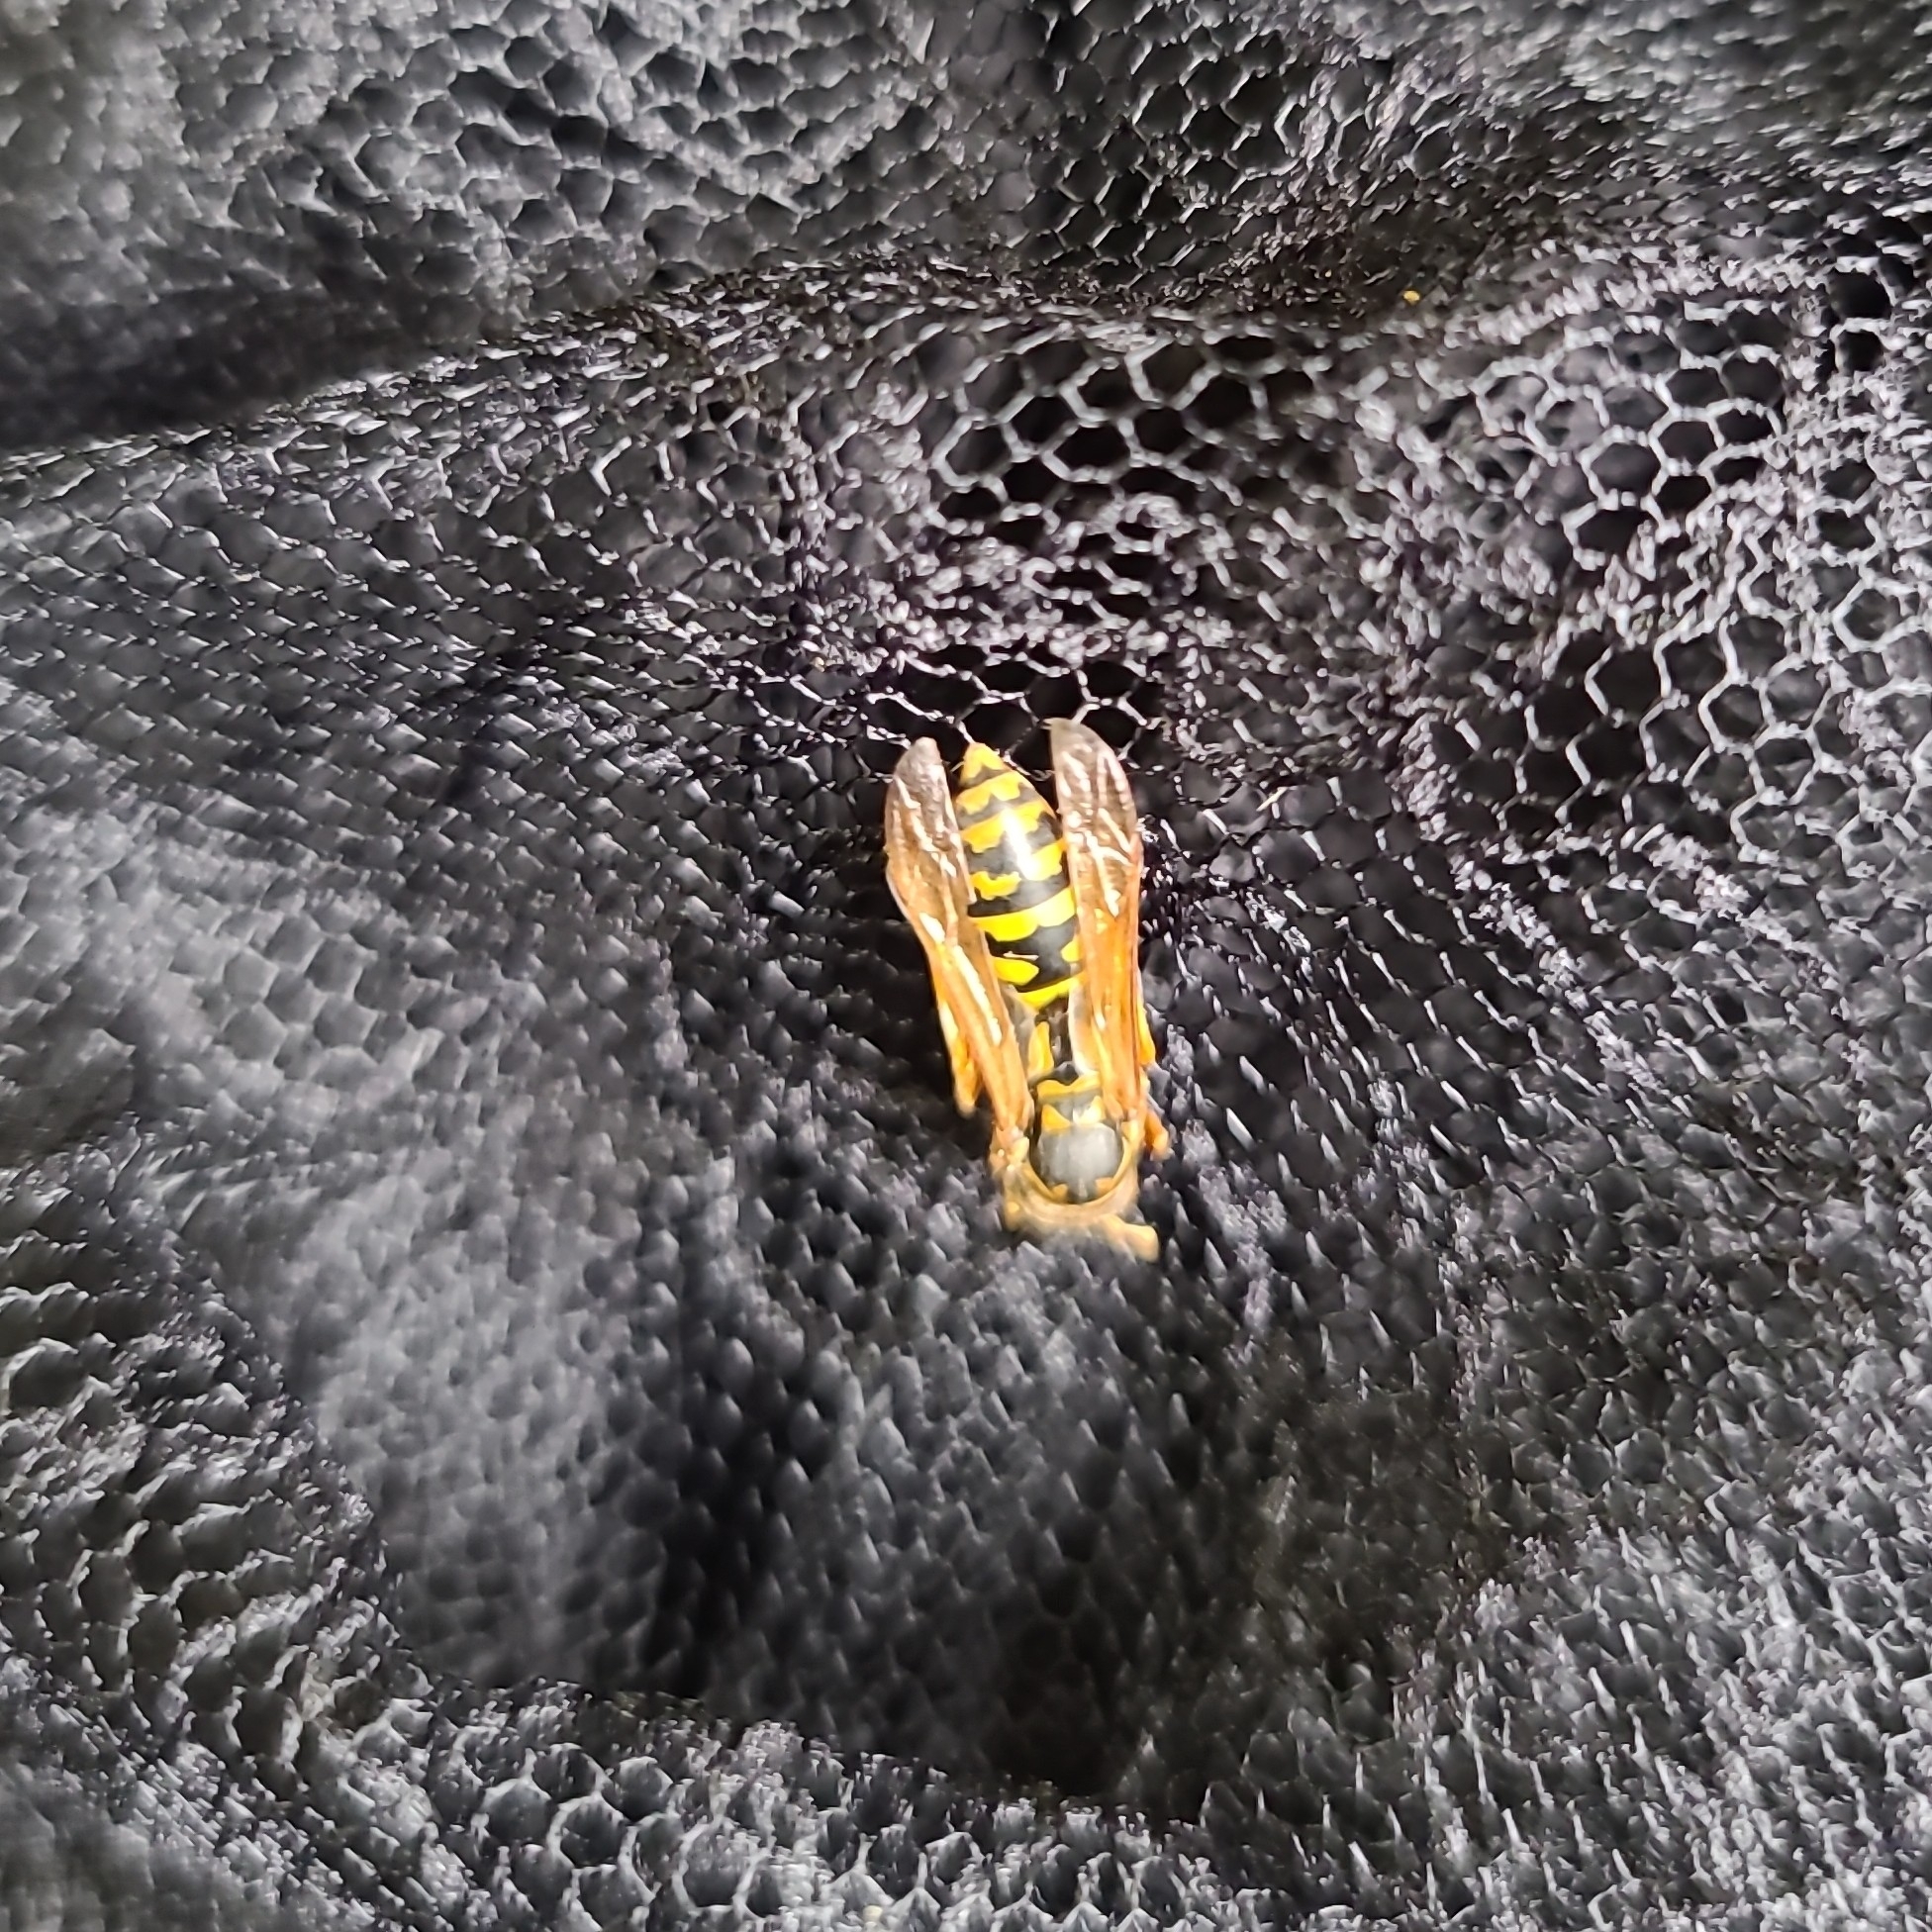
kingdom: Animalia
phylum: Arthropoda
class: Insecta
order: Hymenoptera
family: Eumenidae
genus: Polistes
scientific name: Polistes dominula
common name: Paper wasp
